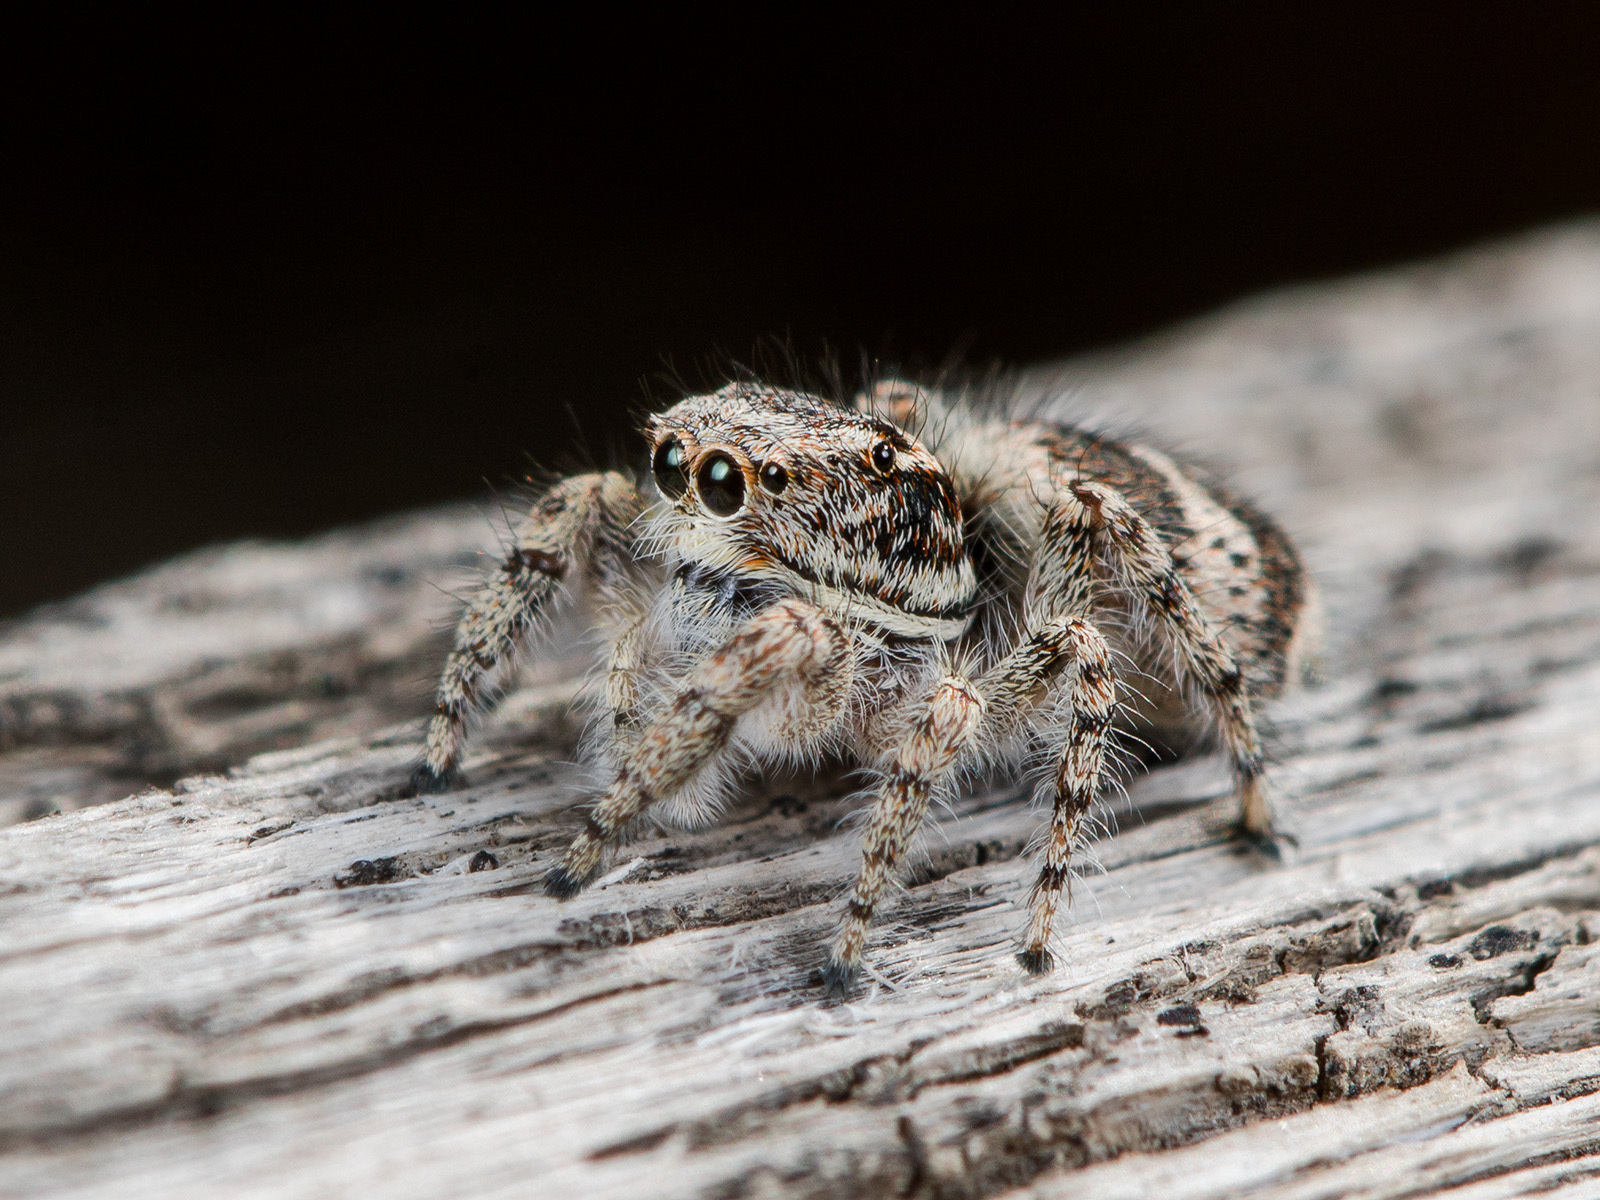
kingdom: Animalia
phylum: Arthropoda
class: Arachnida
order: Araneae
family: Salticidae
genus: Pseudomogrus
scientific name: Pseudomogrus albocinctus
